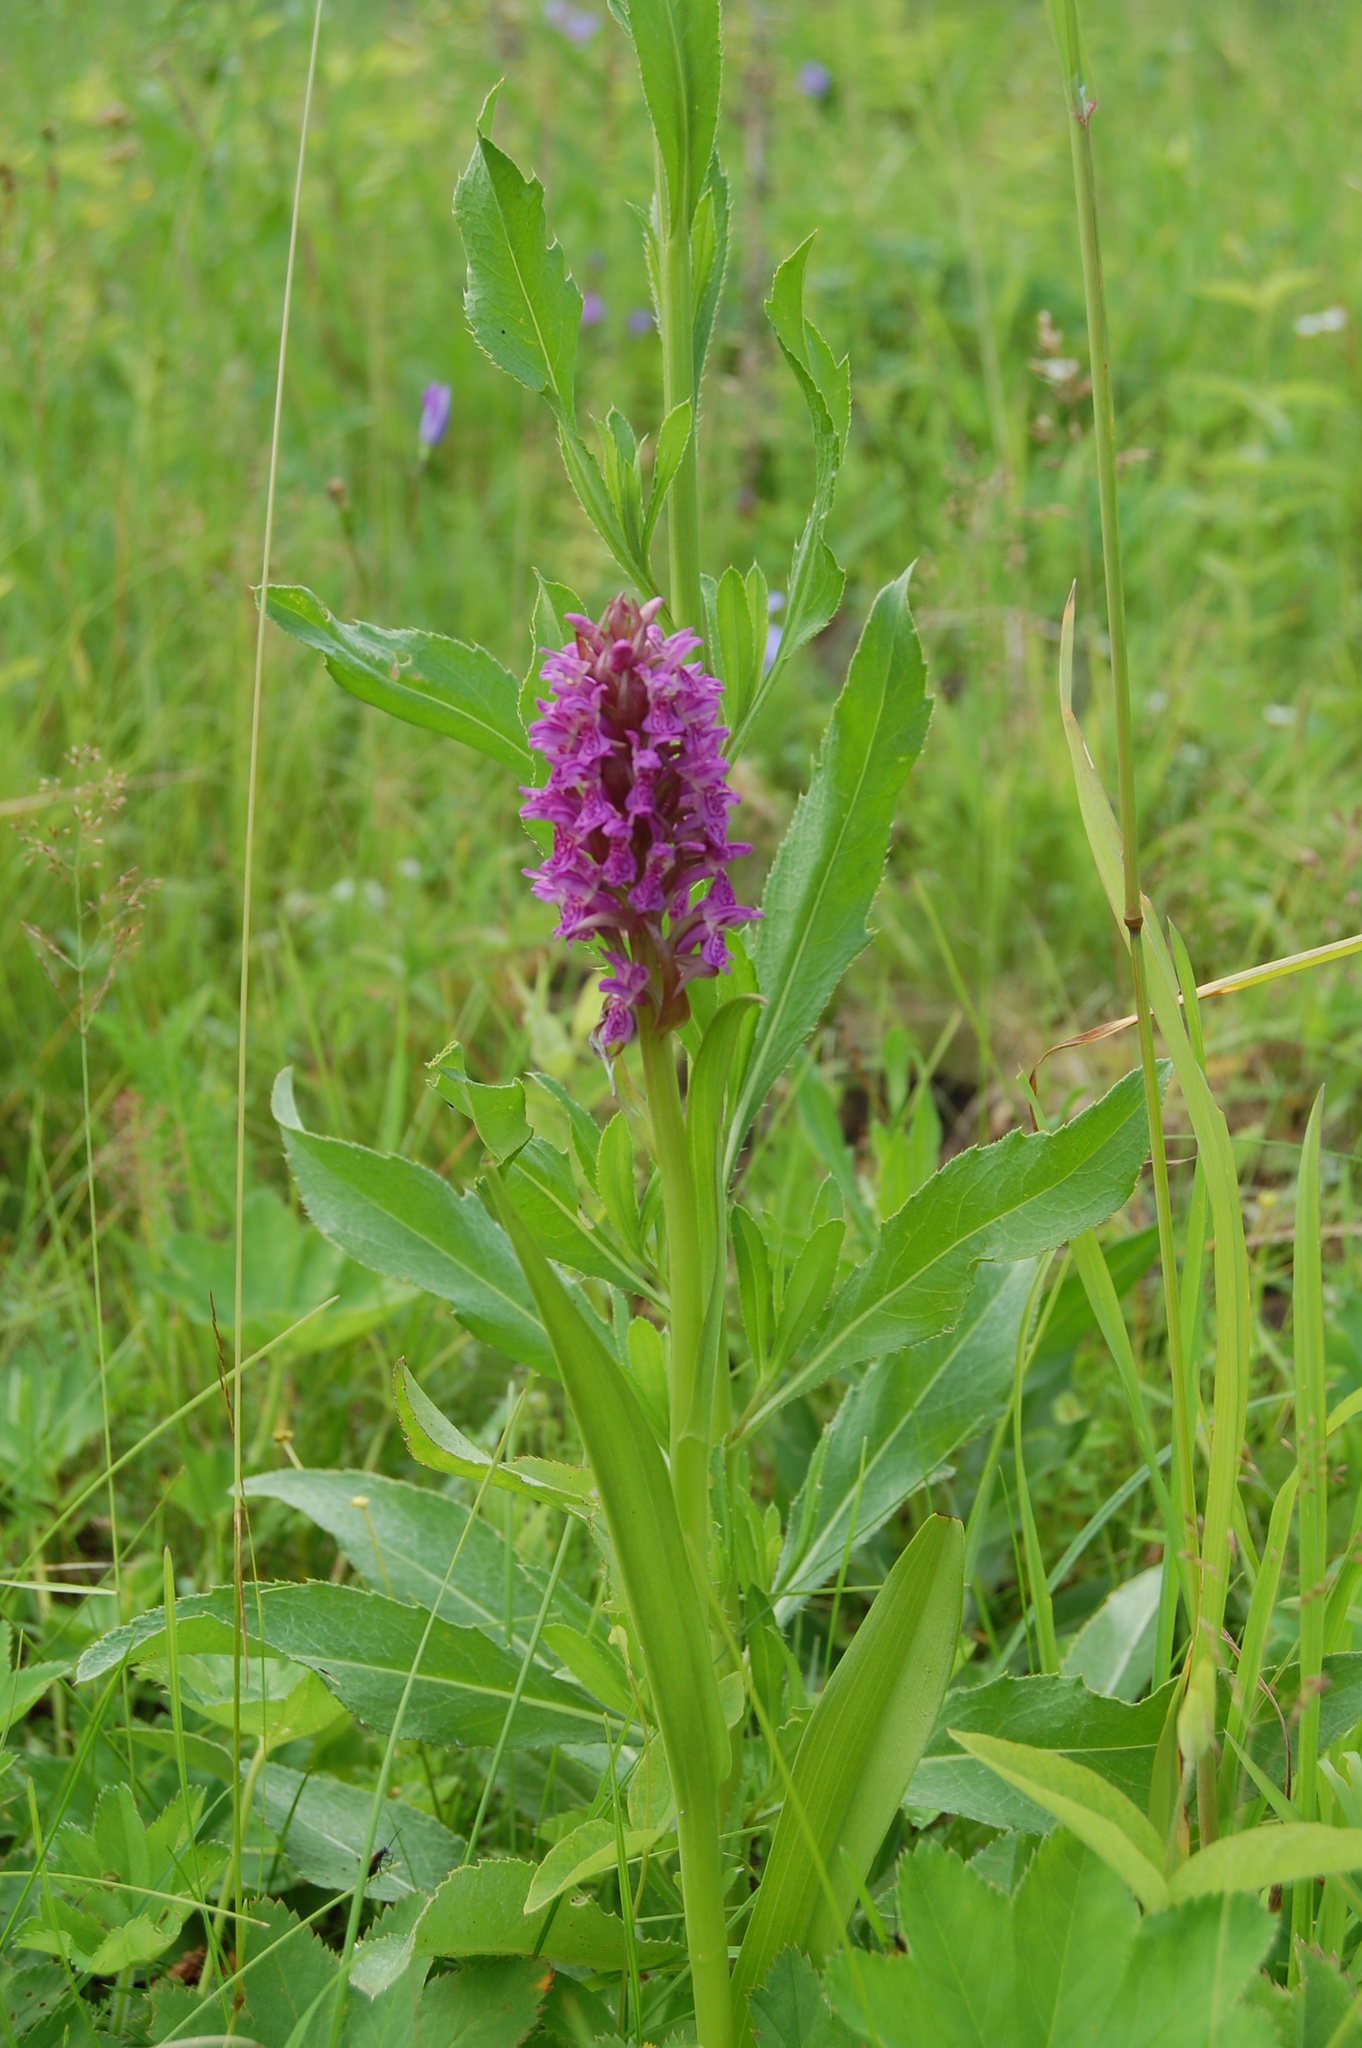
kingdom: Plantae
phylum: Tracheophyta
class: Liliopsida
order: Asparagales
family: Orchidaceae
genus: Dactylorhiza
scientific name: Dactylorhiza incarnata
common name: Early marsh-orchid
